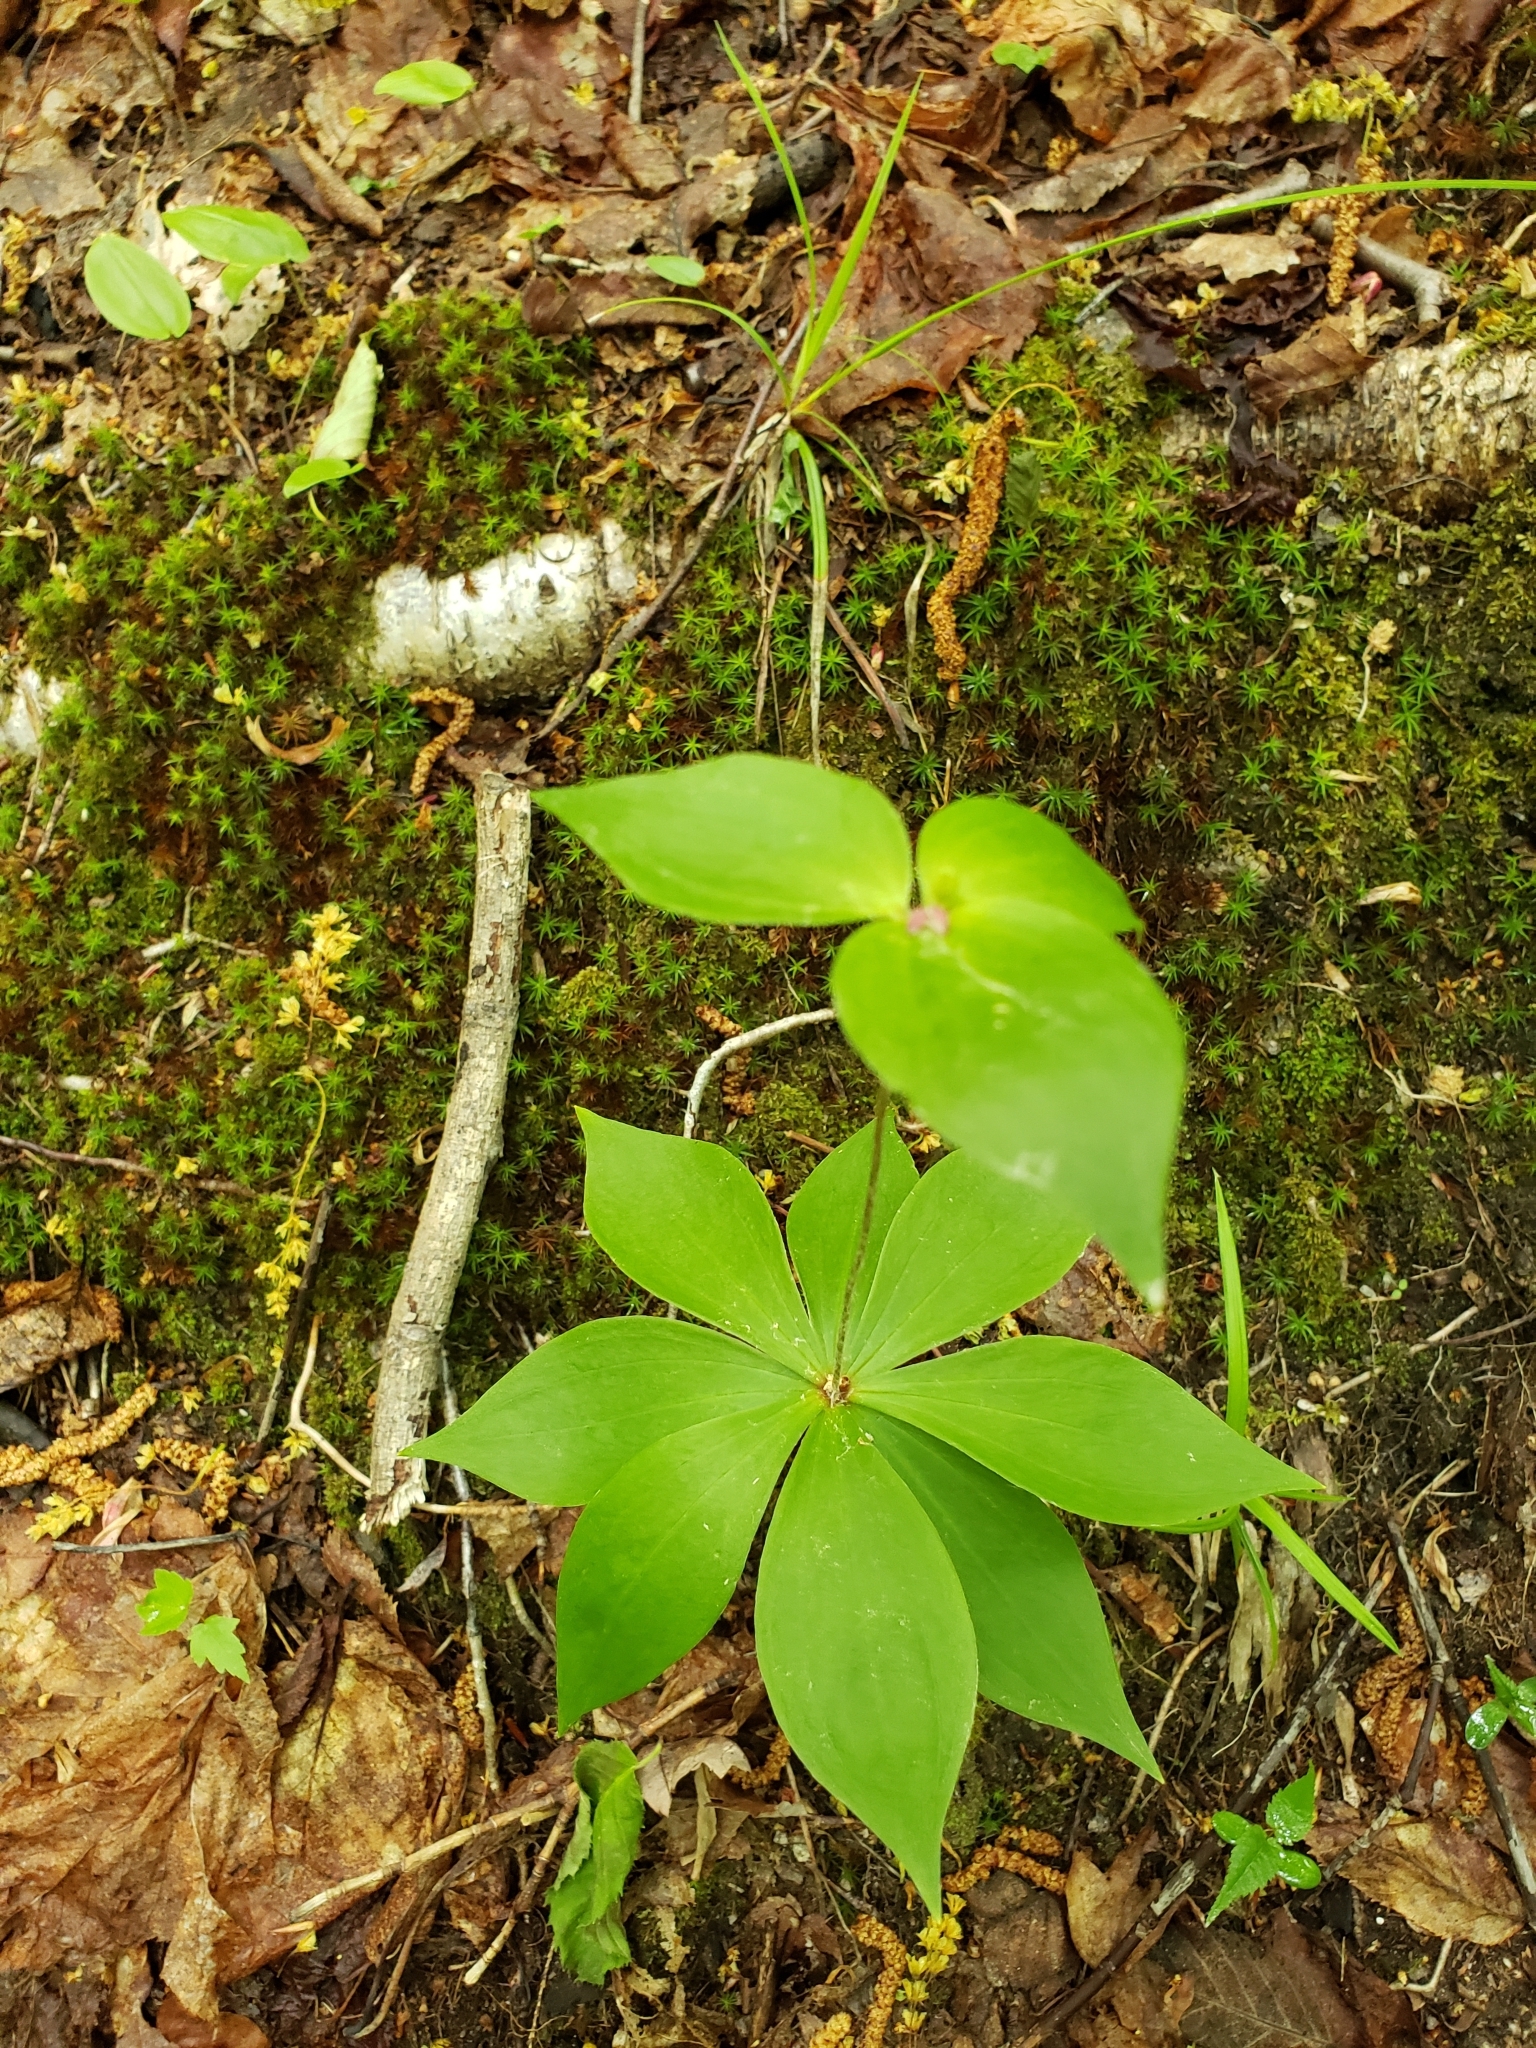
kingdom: Plantae
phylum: Tracheophyta
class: Liliopsida
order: Liliales
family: Liliaceae
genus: Medeola
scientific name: Medeola virginiana
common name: Indian cucumber-root
